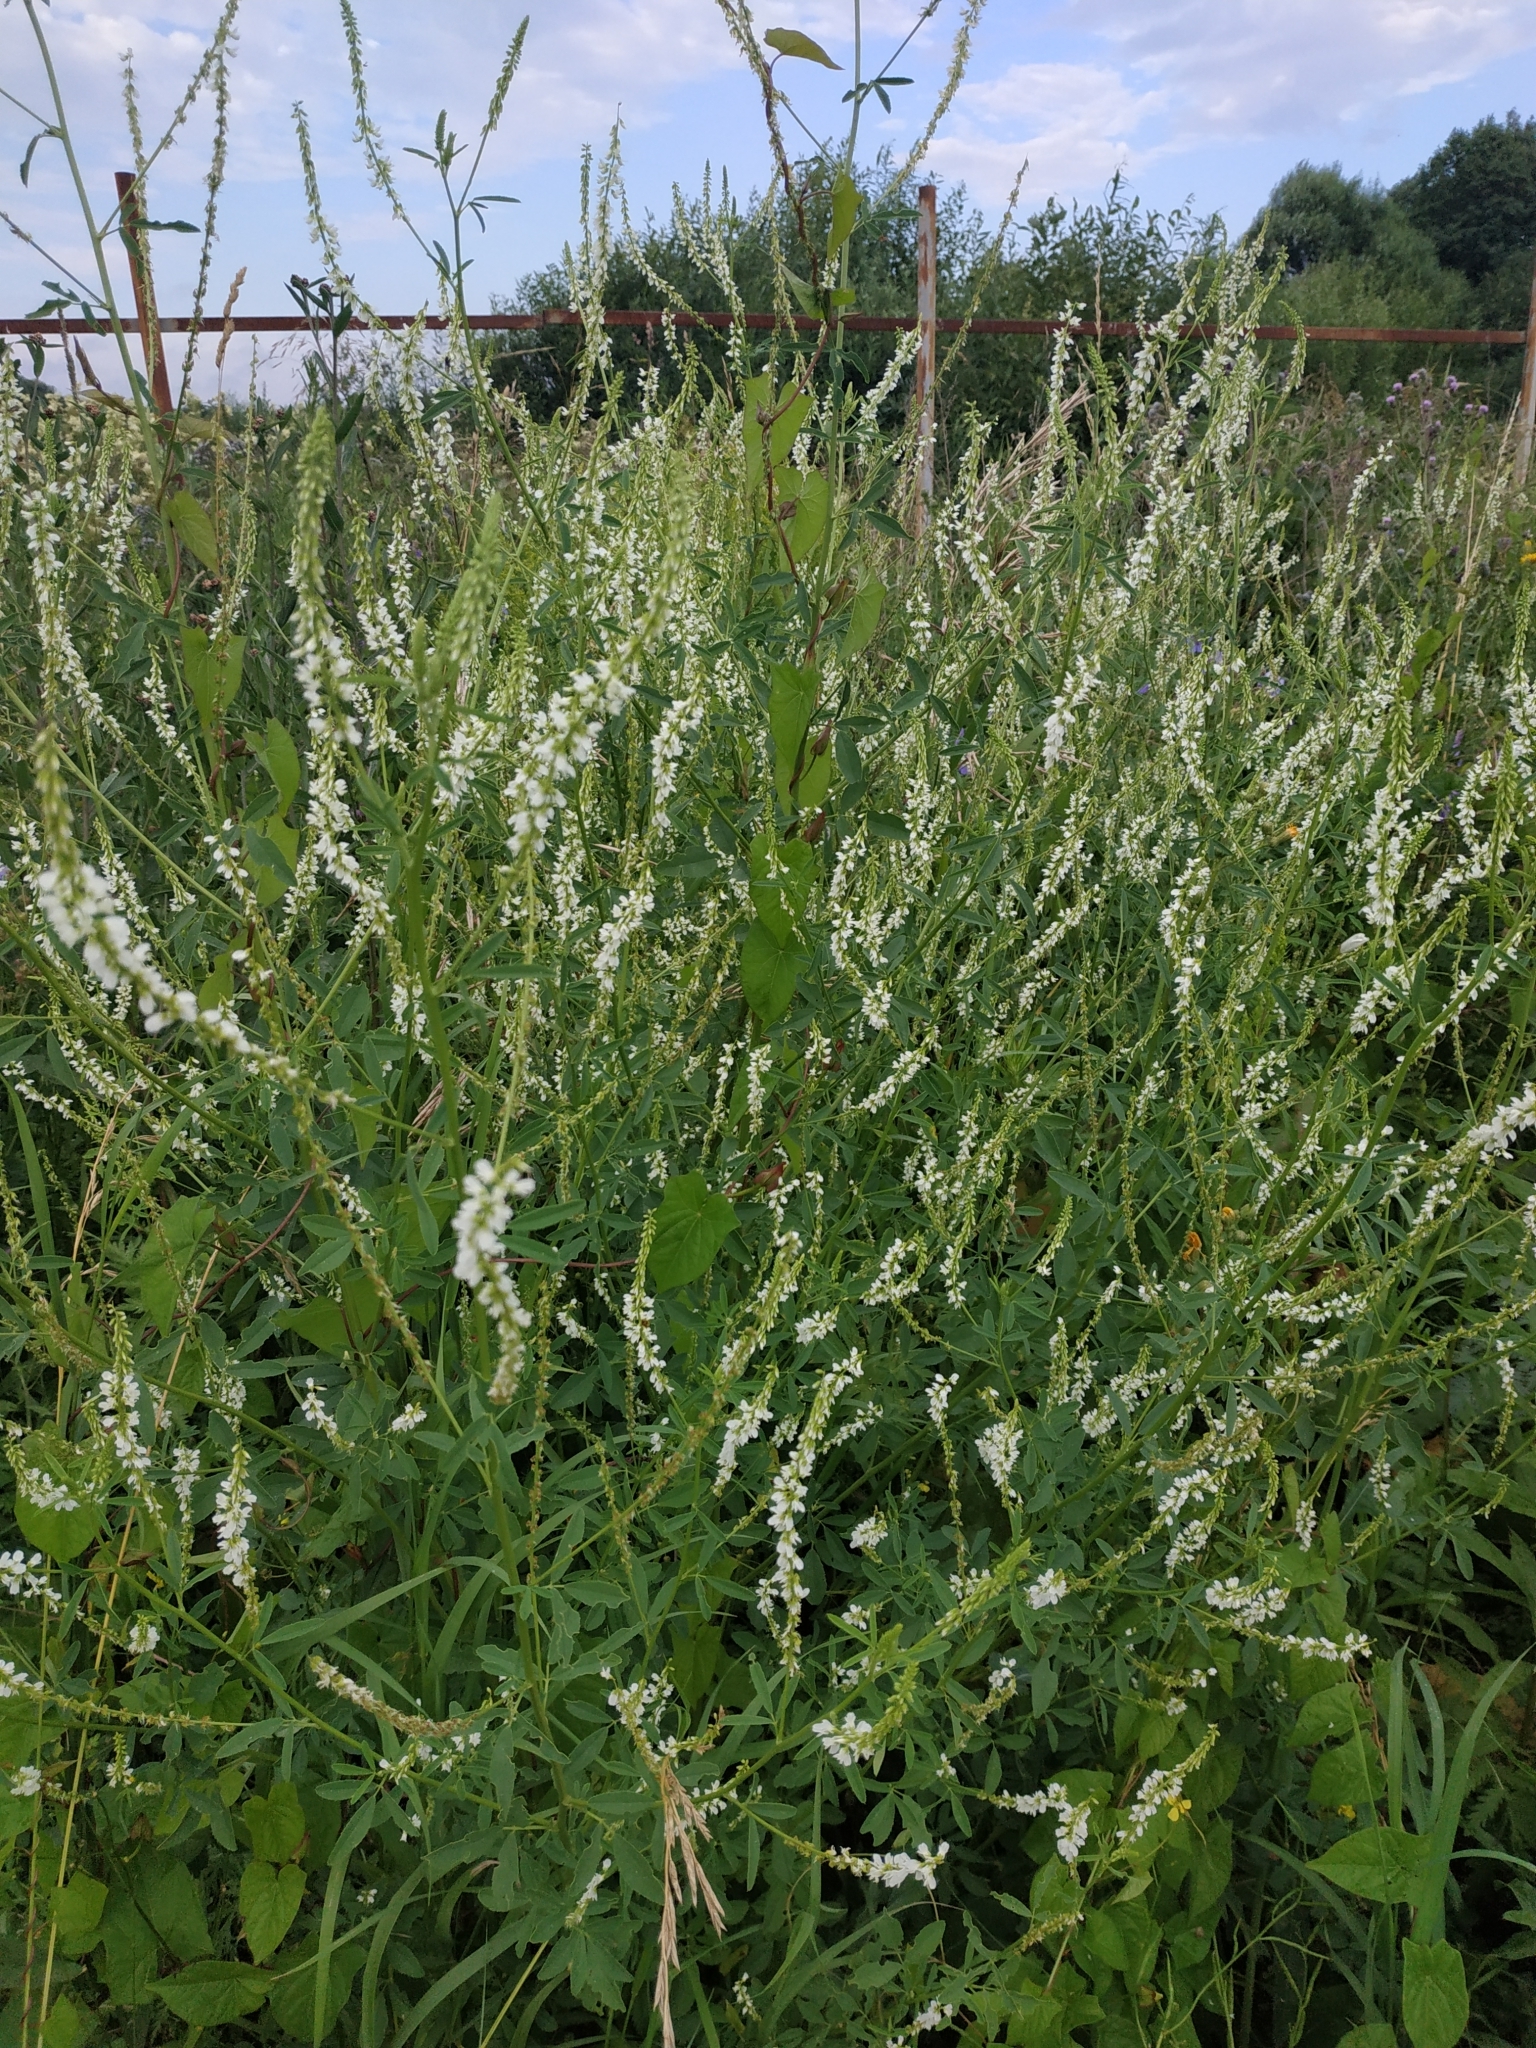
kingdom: Plantae
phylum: Tracheophyta
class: Magnoliopsida
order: Fabales
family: Fabaceae
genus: Melilotus
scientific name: Melilotus albus
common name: White melilot
